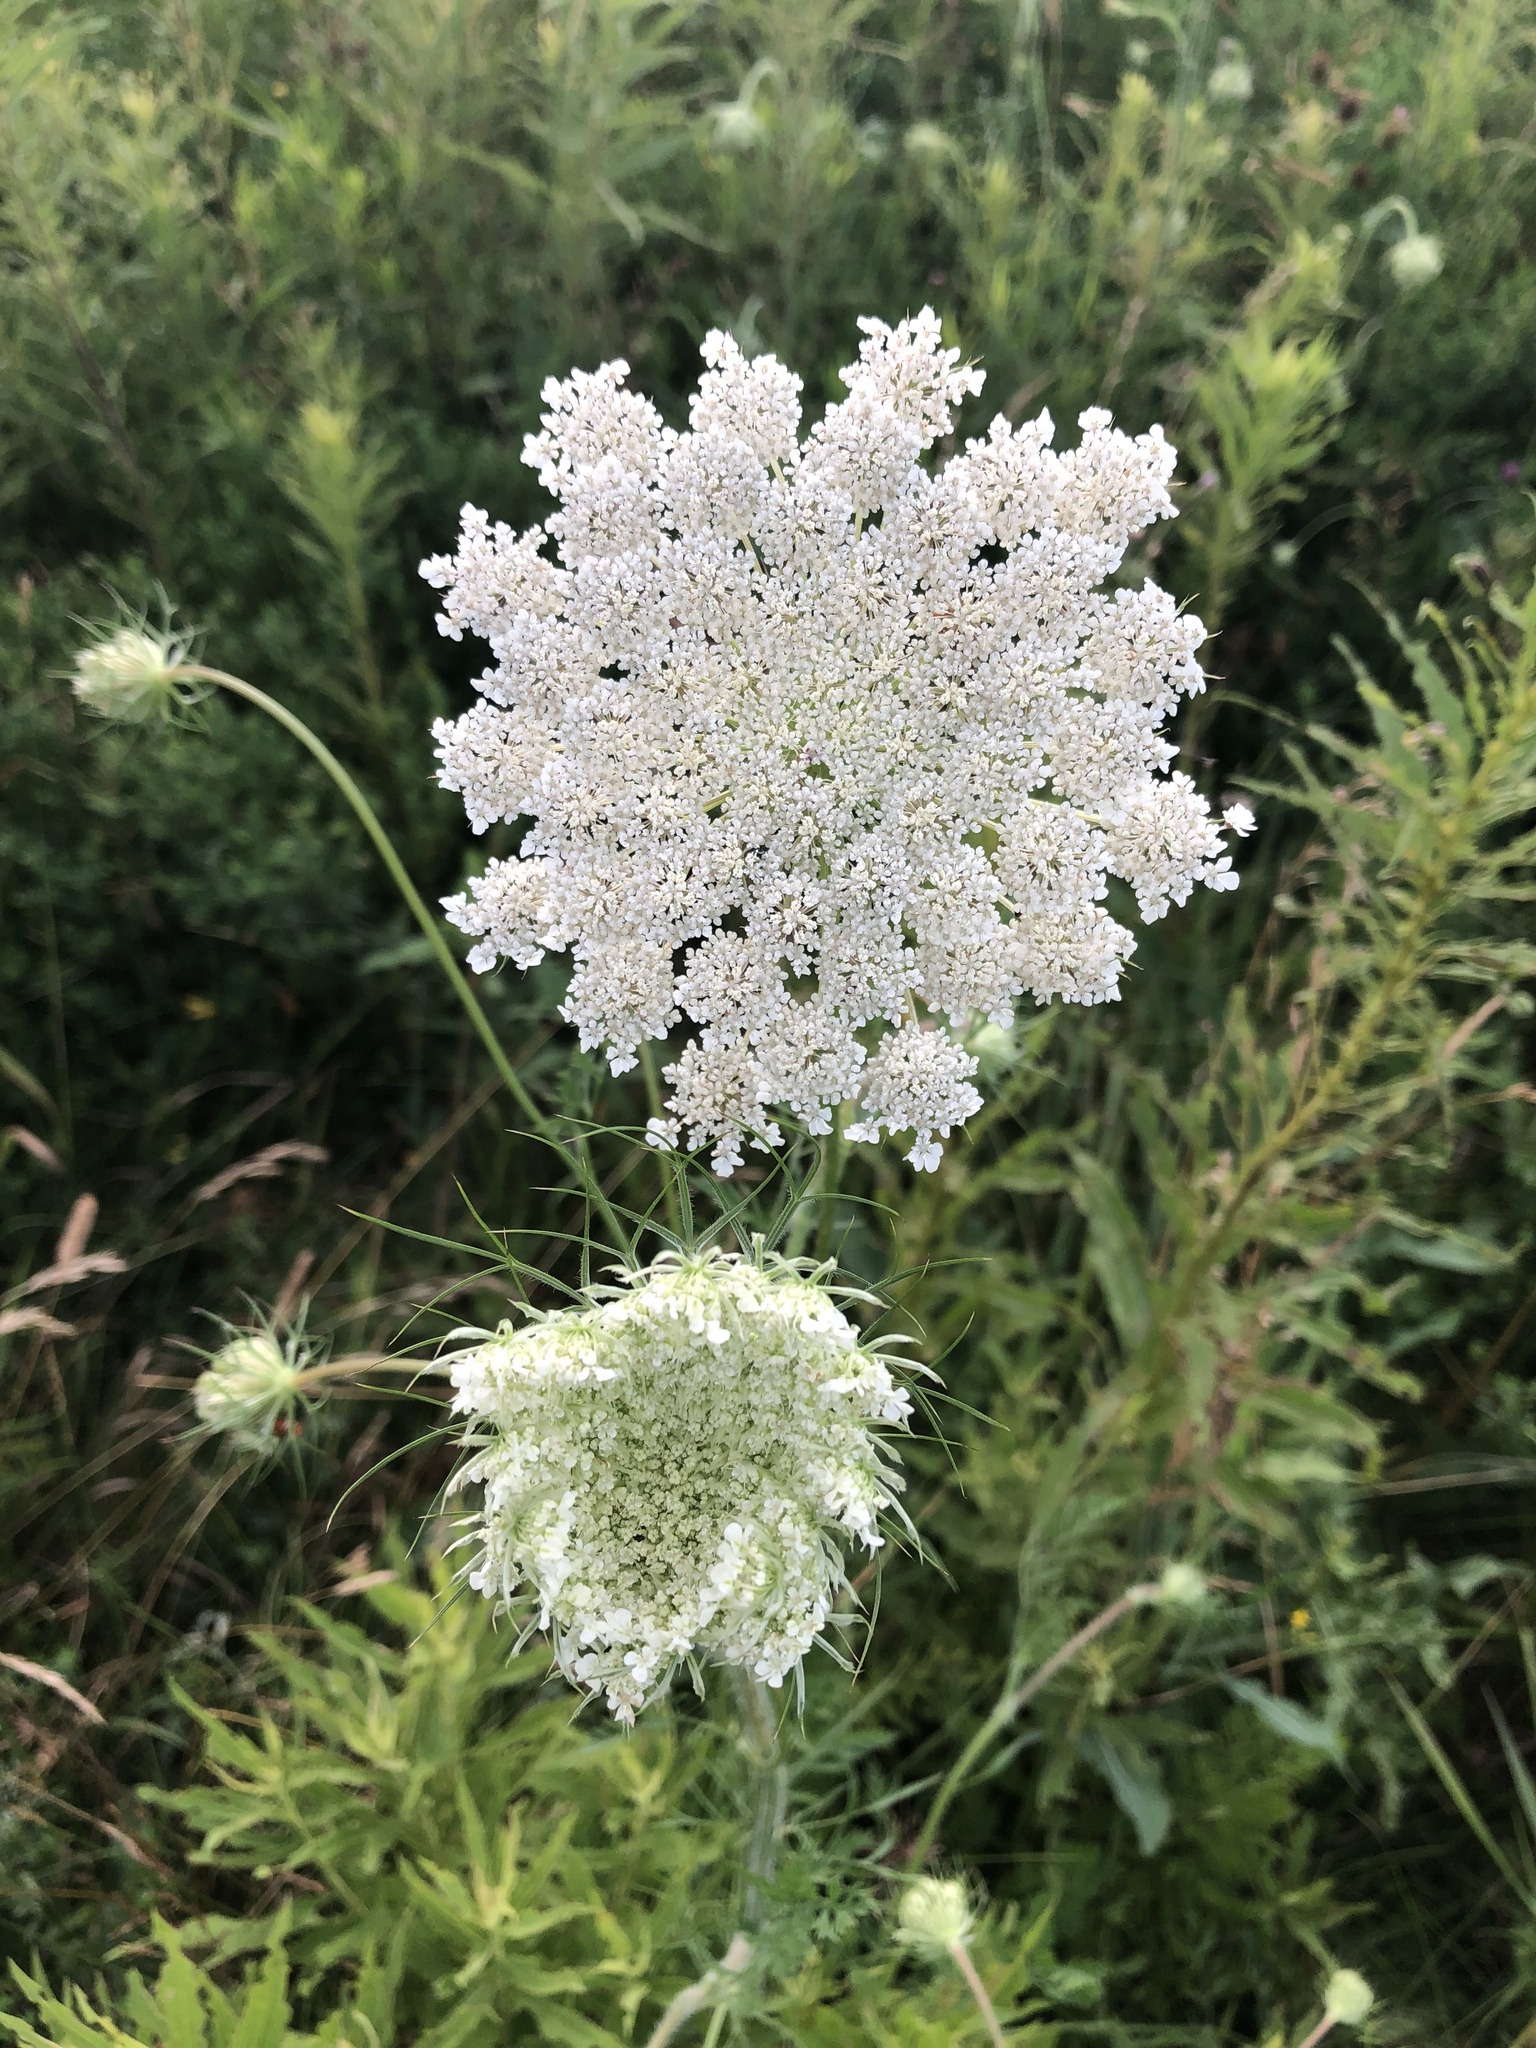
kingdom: Plantae
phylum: Tracheophyta
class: Magnoliopsida
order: Apiales
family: Apiaceae
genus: Daucus
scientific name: Daucus carota
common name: Wild carrot
